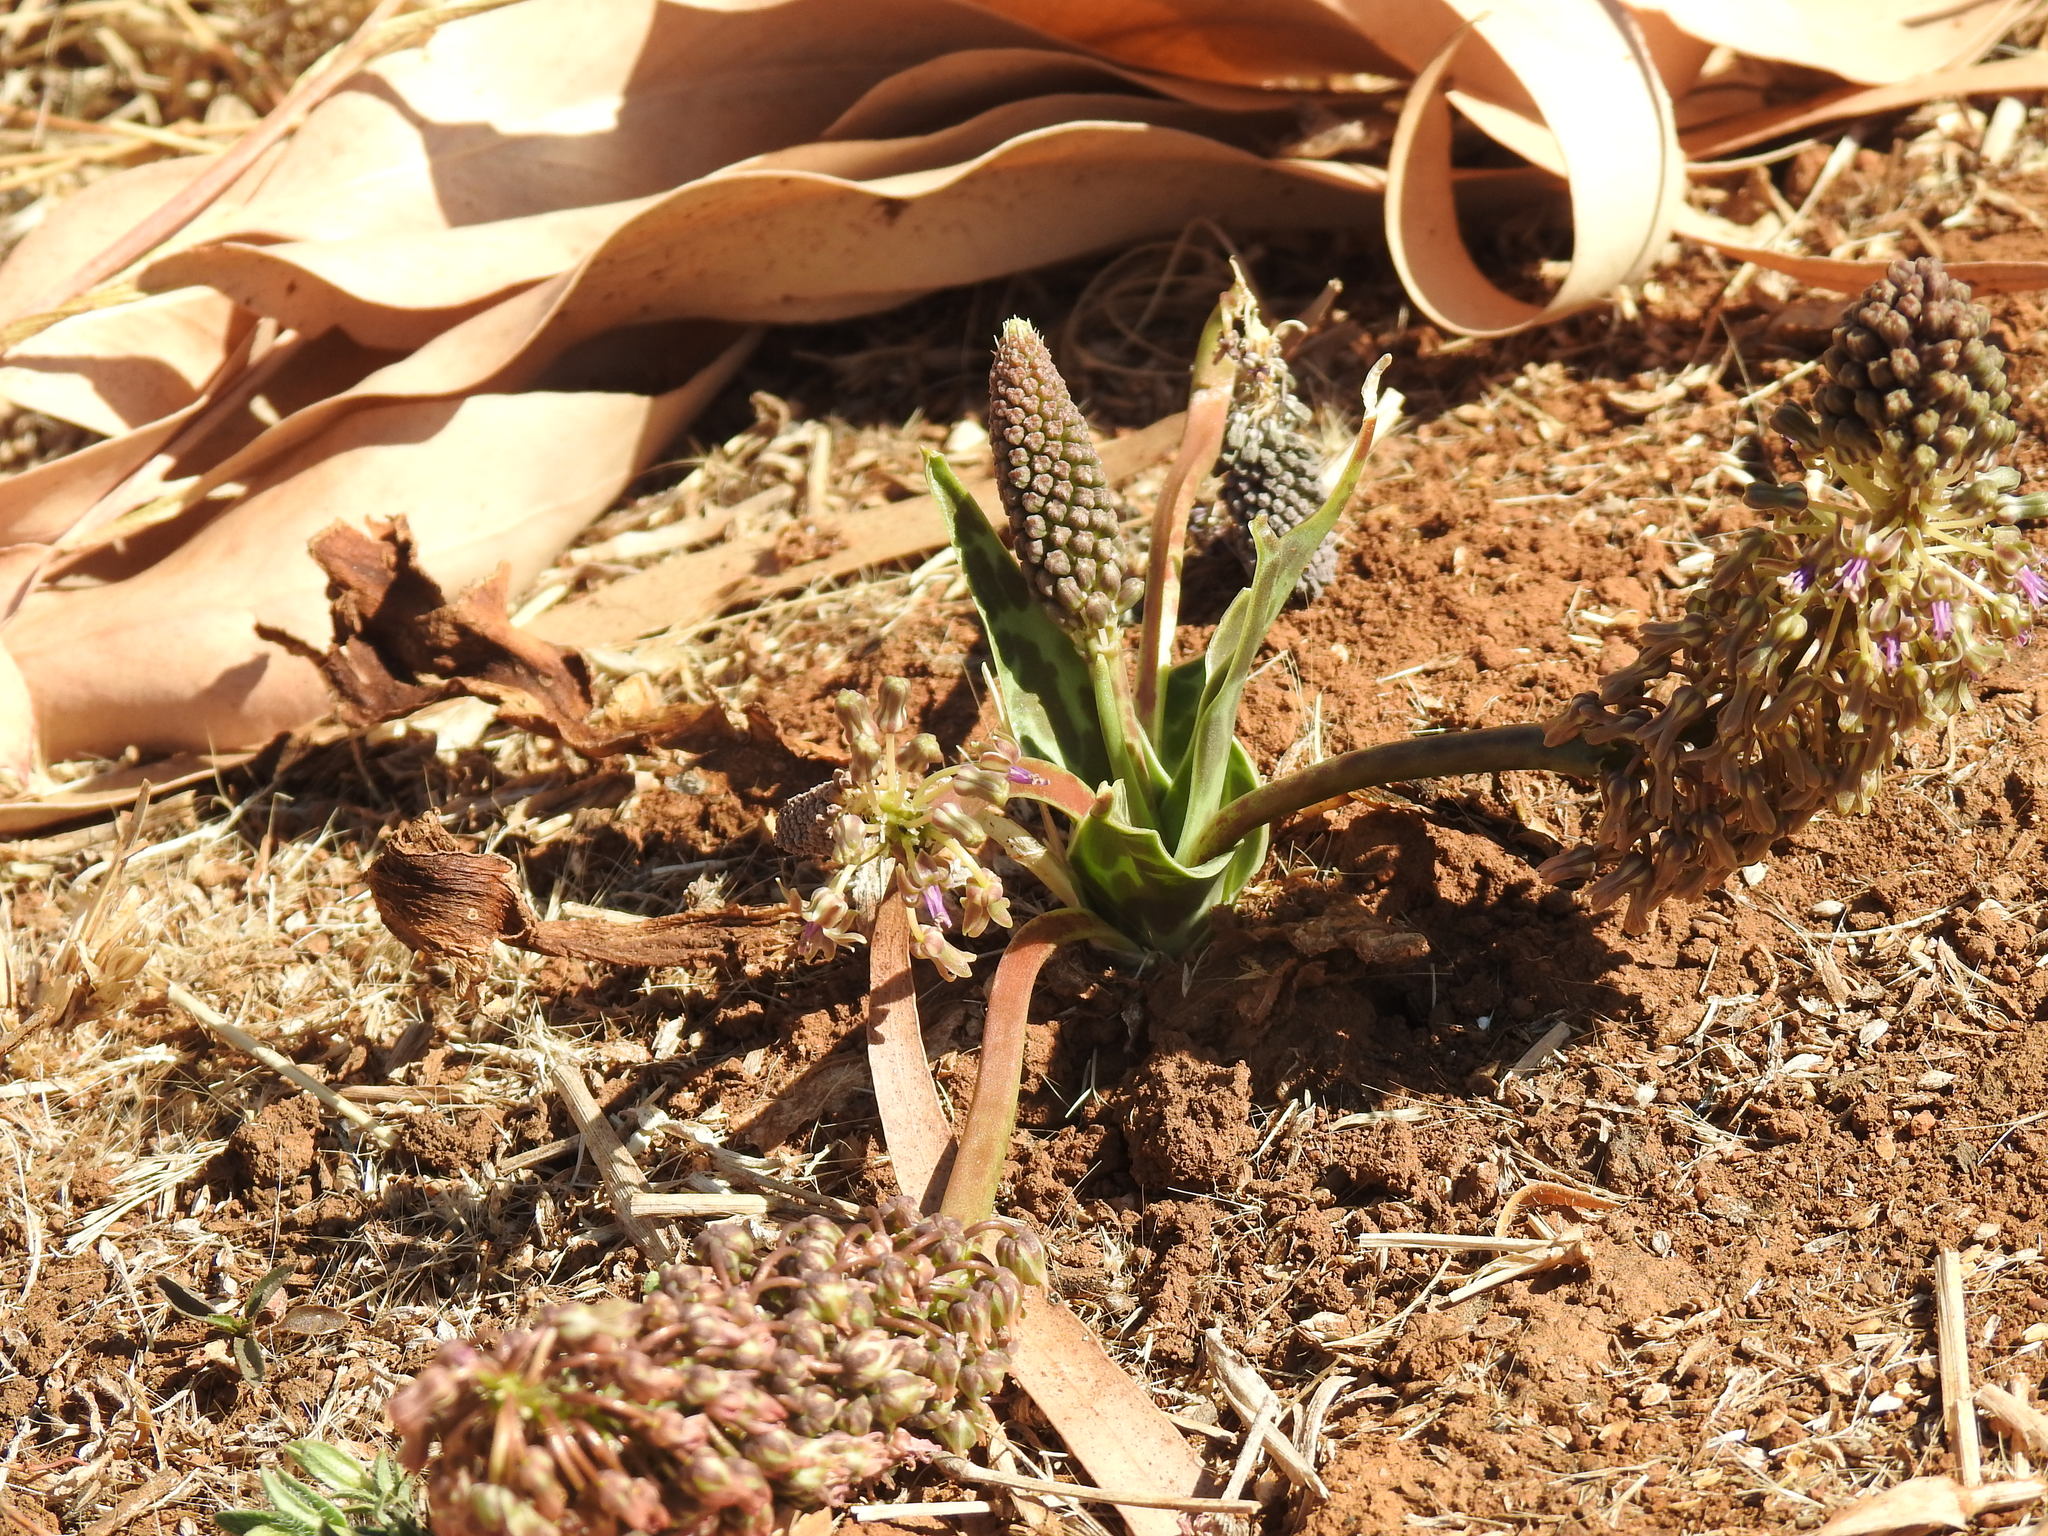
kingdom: Plantae
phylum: Tracheophyta
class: Liliopsida
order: Asparagales
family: Asparagaceae
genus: Ledebouria
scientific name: Ledebouria luteola
